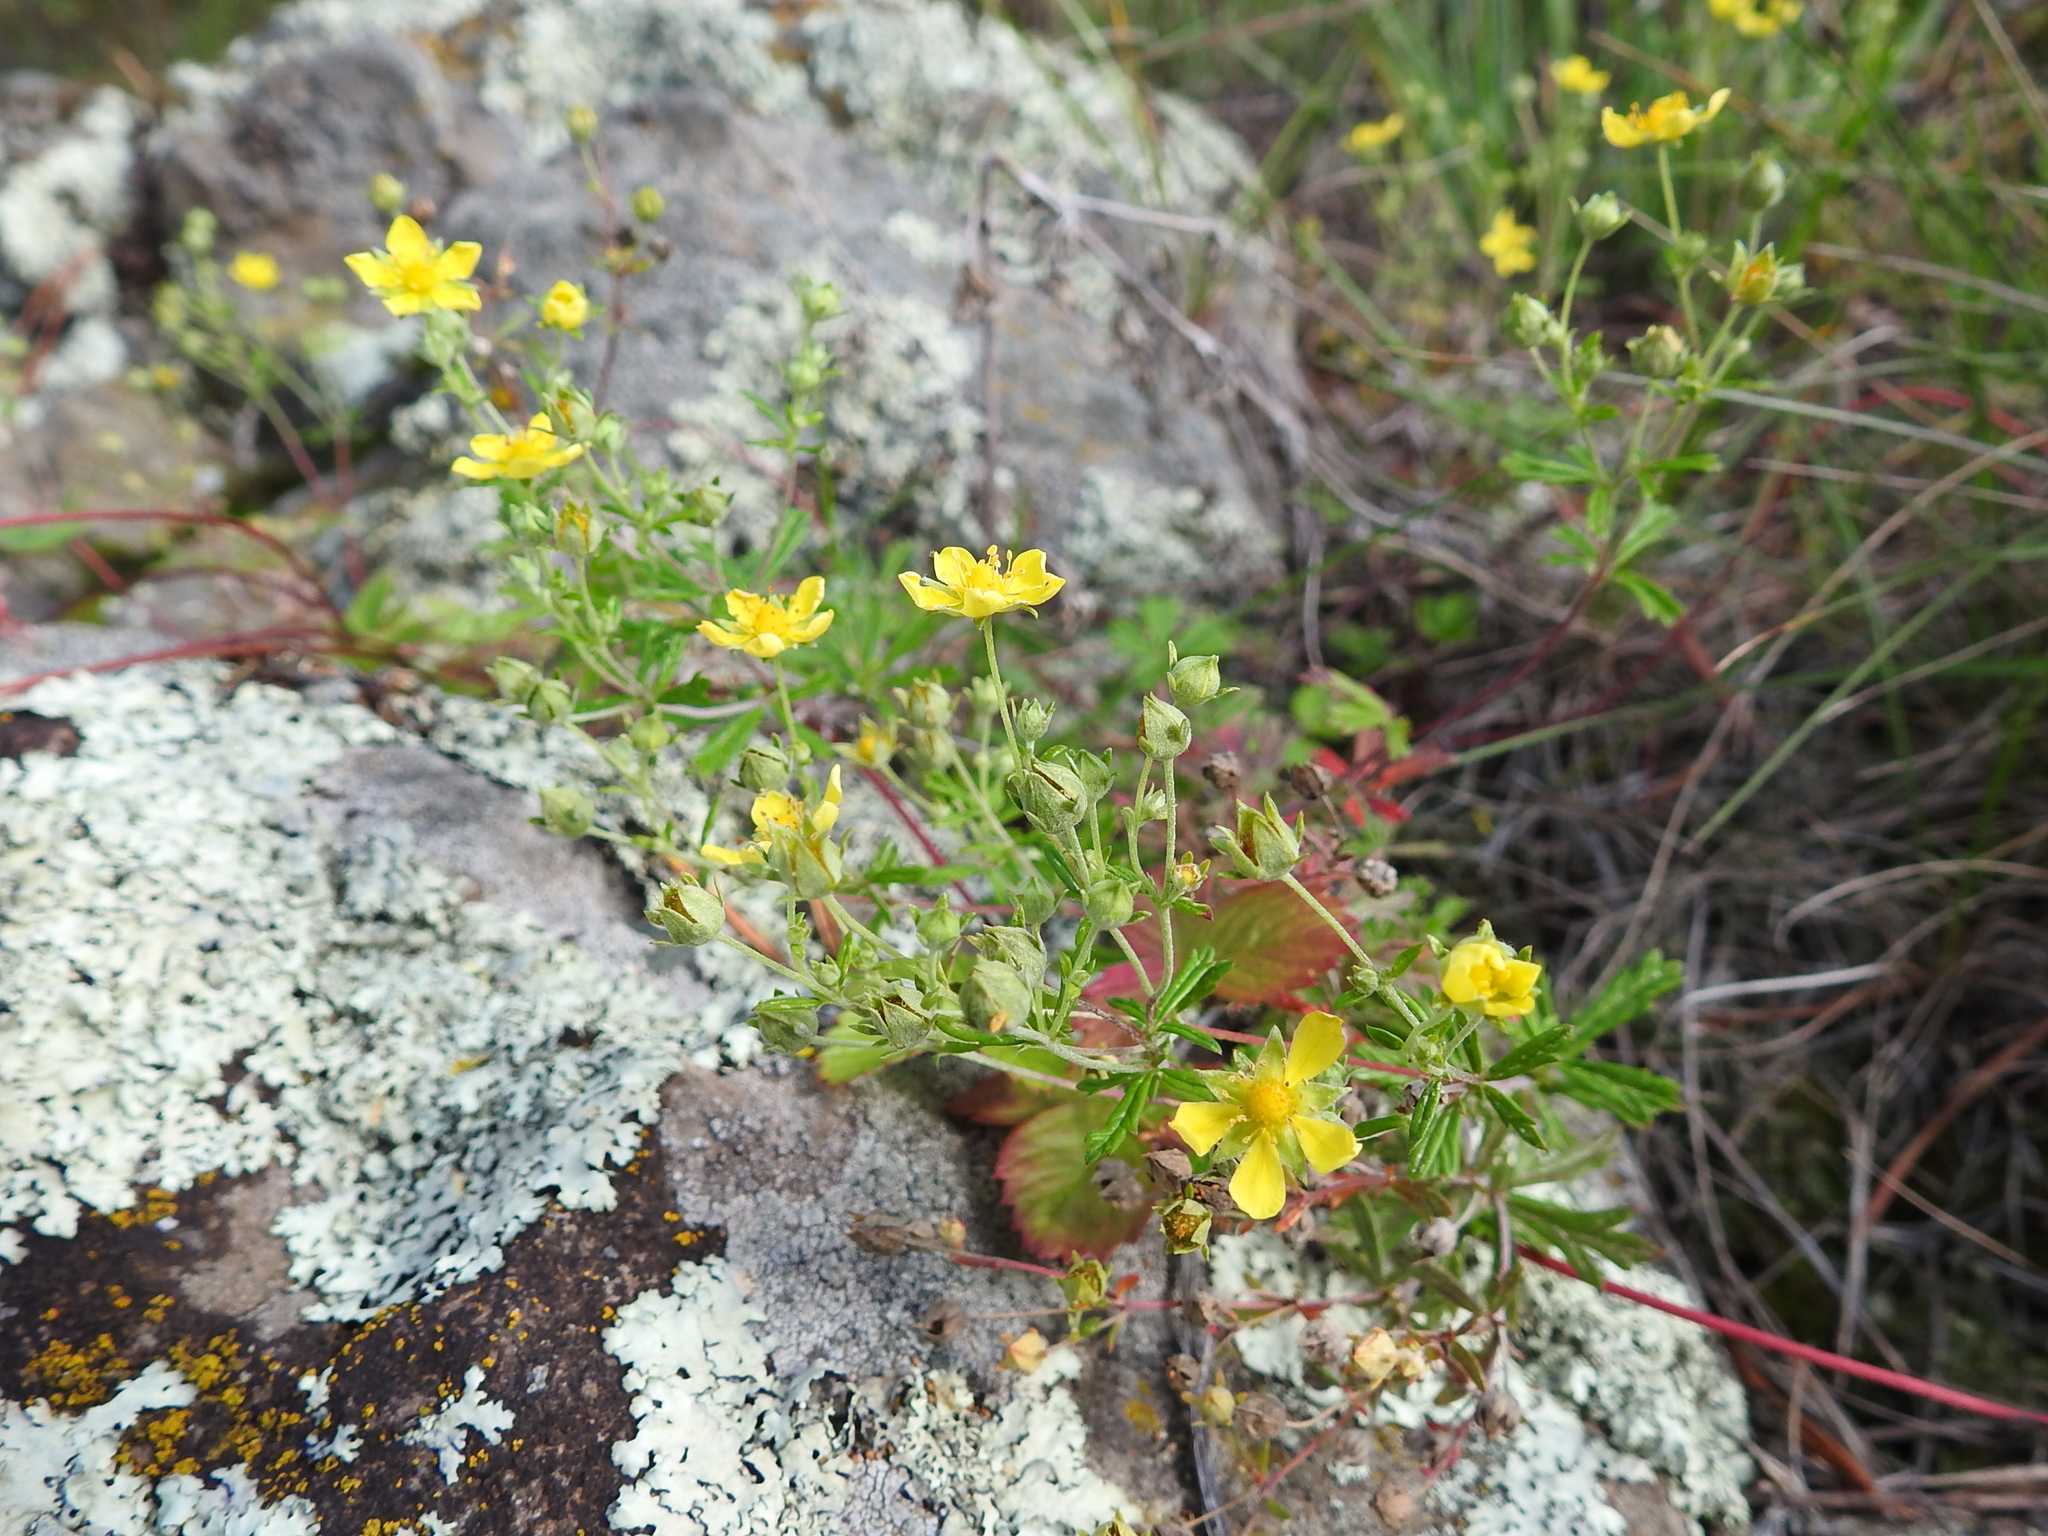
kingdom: Plantae
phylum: Tracheophyta
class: Magnoliopsida
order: Rosales
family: Rosaceae
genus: Potentilla
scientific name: Potentilla argentea
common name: Hoary cinquefoil
